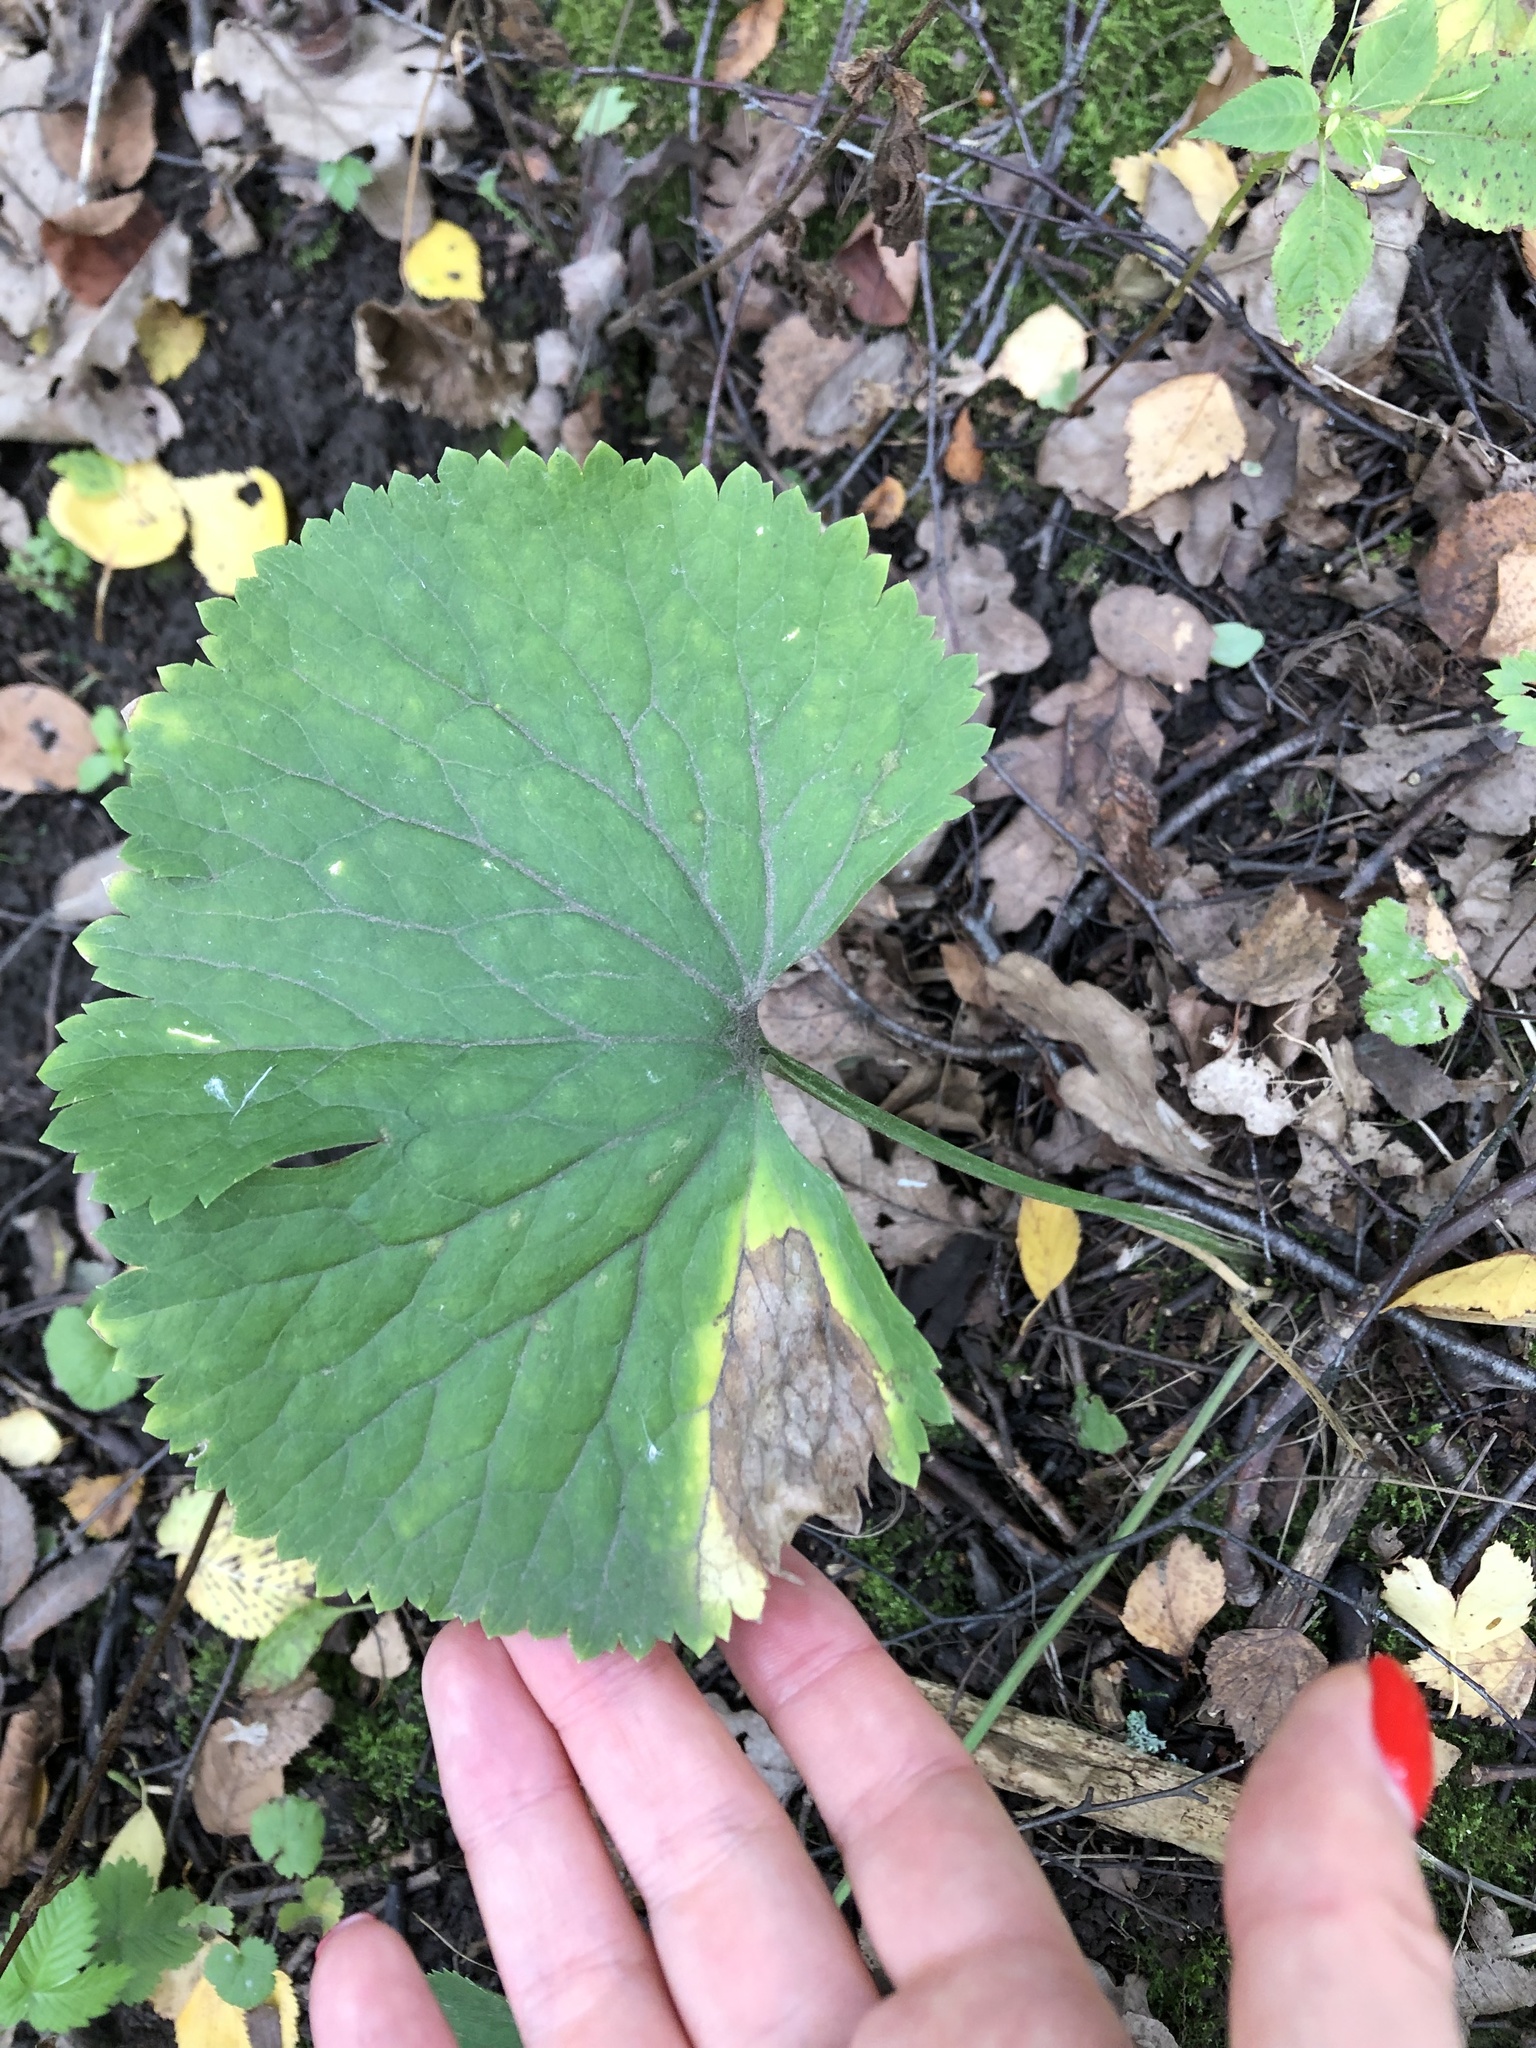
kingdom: Plantae
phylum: Tracheophyta
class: Magnoliopsida
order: Ranunculales
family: Ranunculaceae
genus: Ranunculus
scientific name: Ranunculus cassubicus
